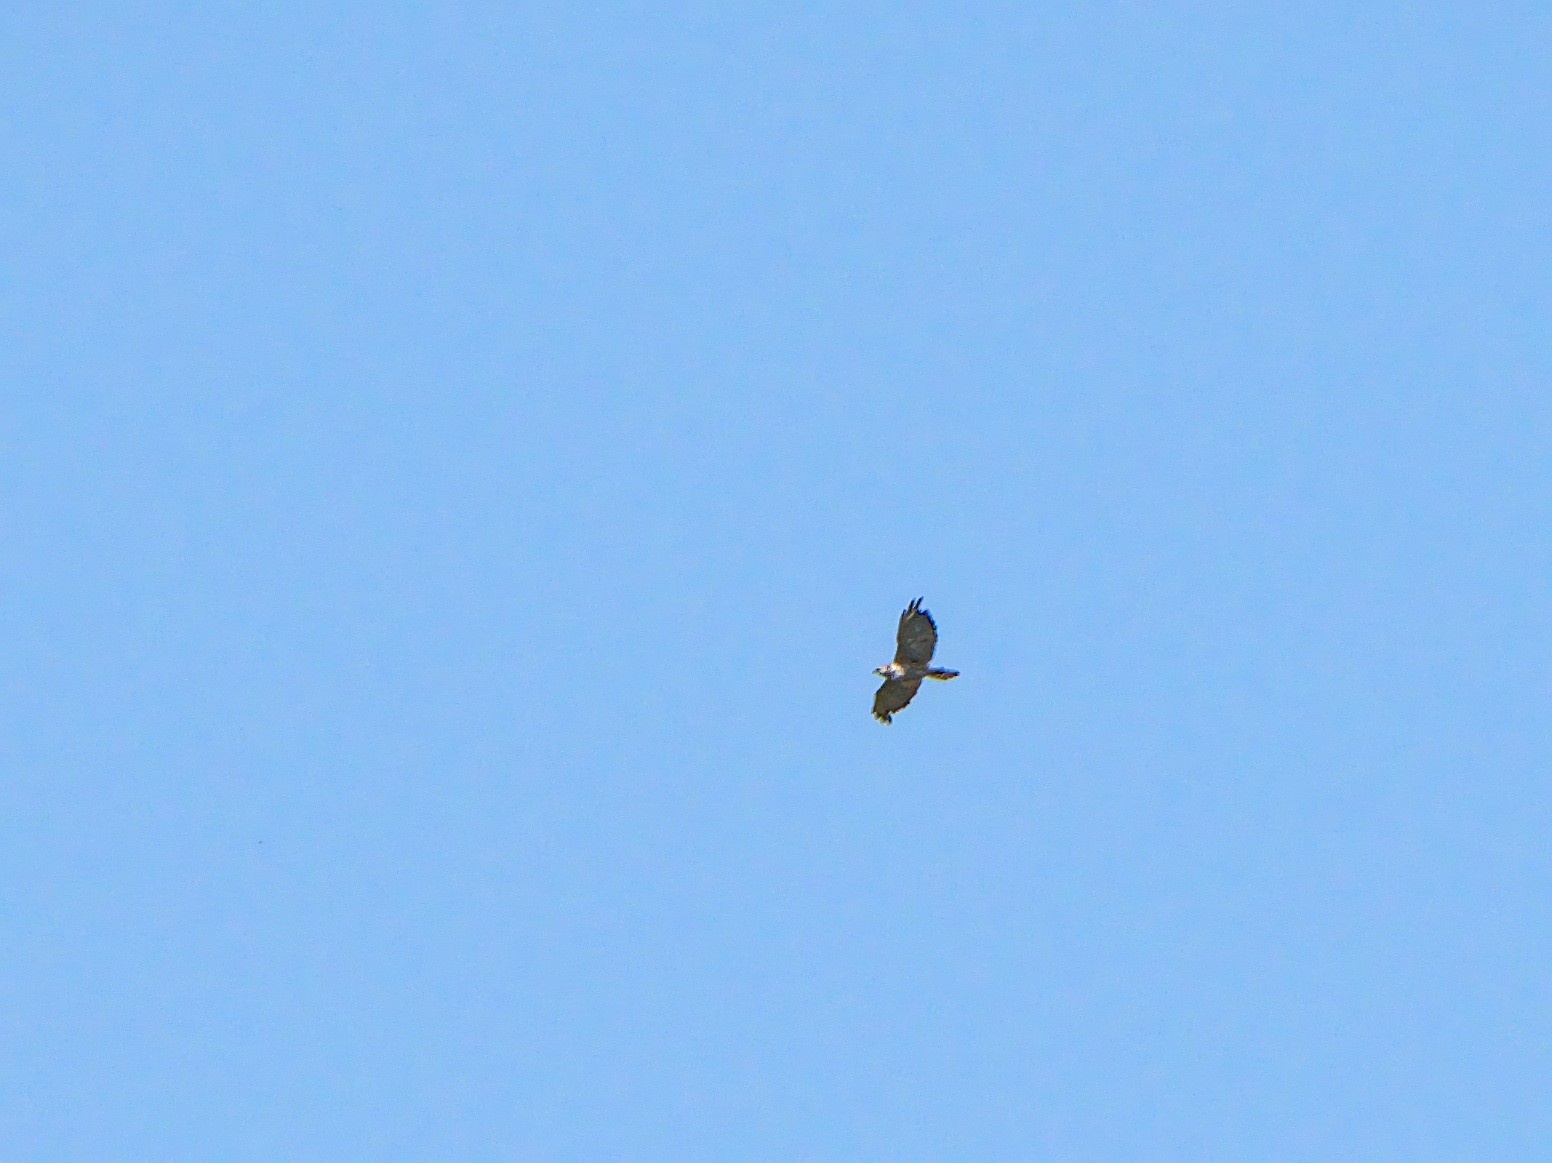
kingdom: Animalia
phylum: Chordata
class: Aves
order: Accipitriformes
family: Accipitridae
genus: Buteo
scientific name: Buteo platypterus
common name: Broad-winged hawk
